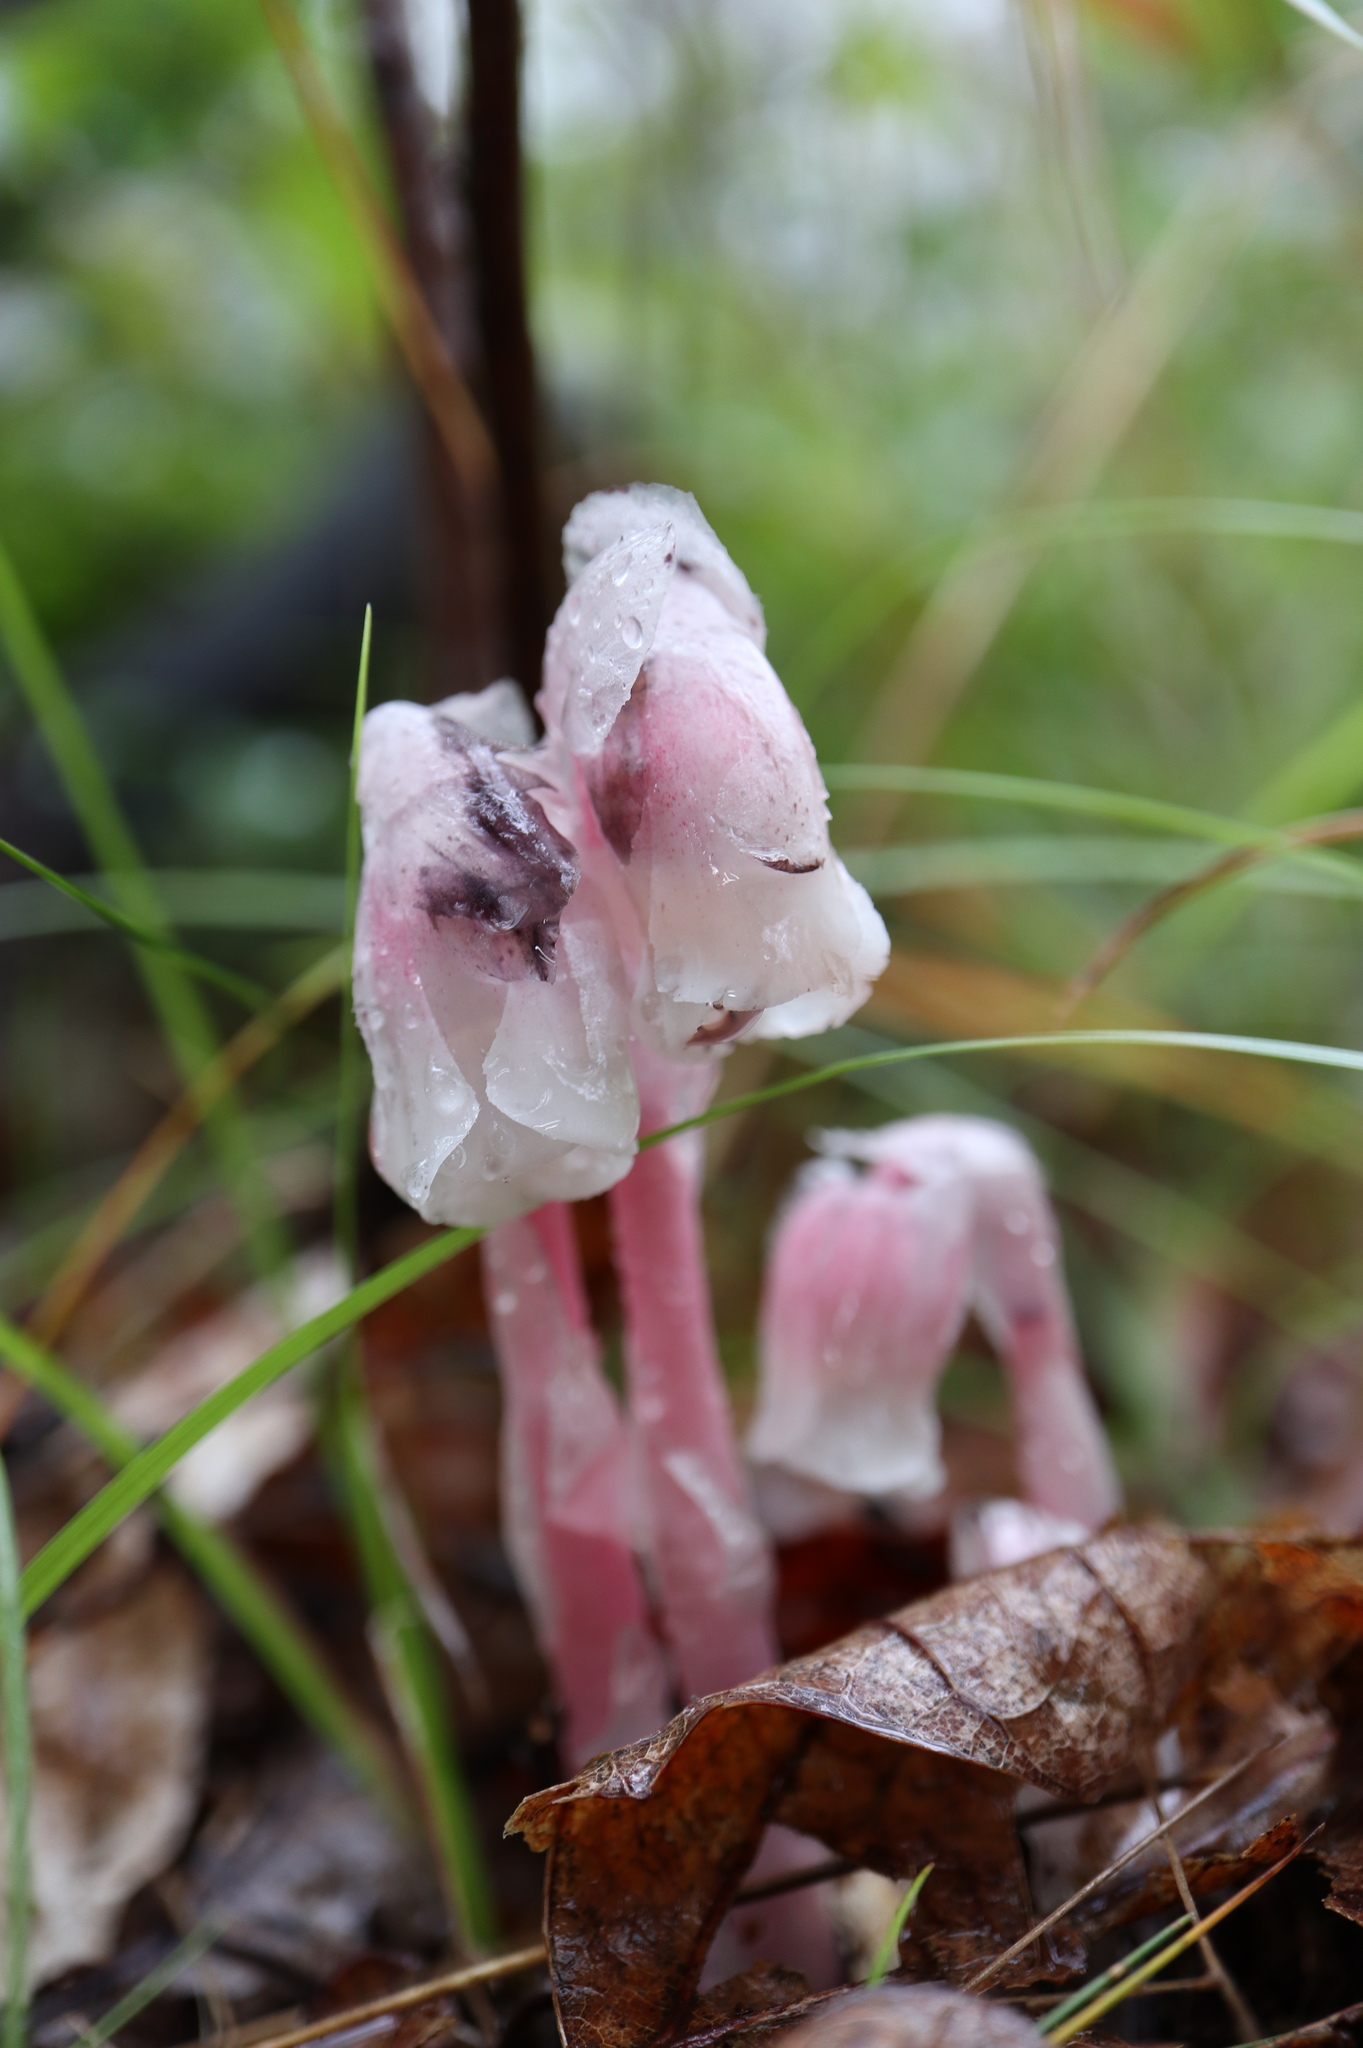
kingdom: Plantae
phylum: Tracheophyta
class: Magnoliopsida
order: Ericales
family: Ericaceae
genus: Monotropa
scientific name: Monotropa uniflora
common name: Convulsion root
